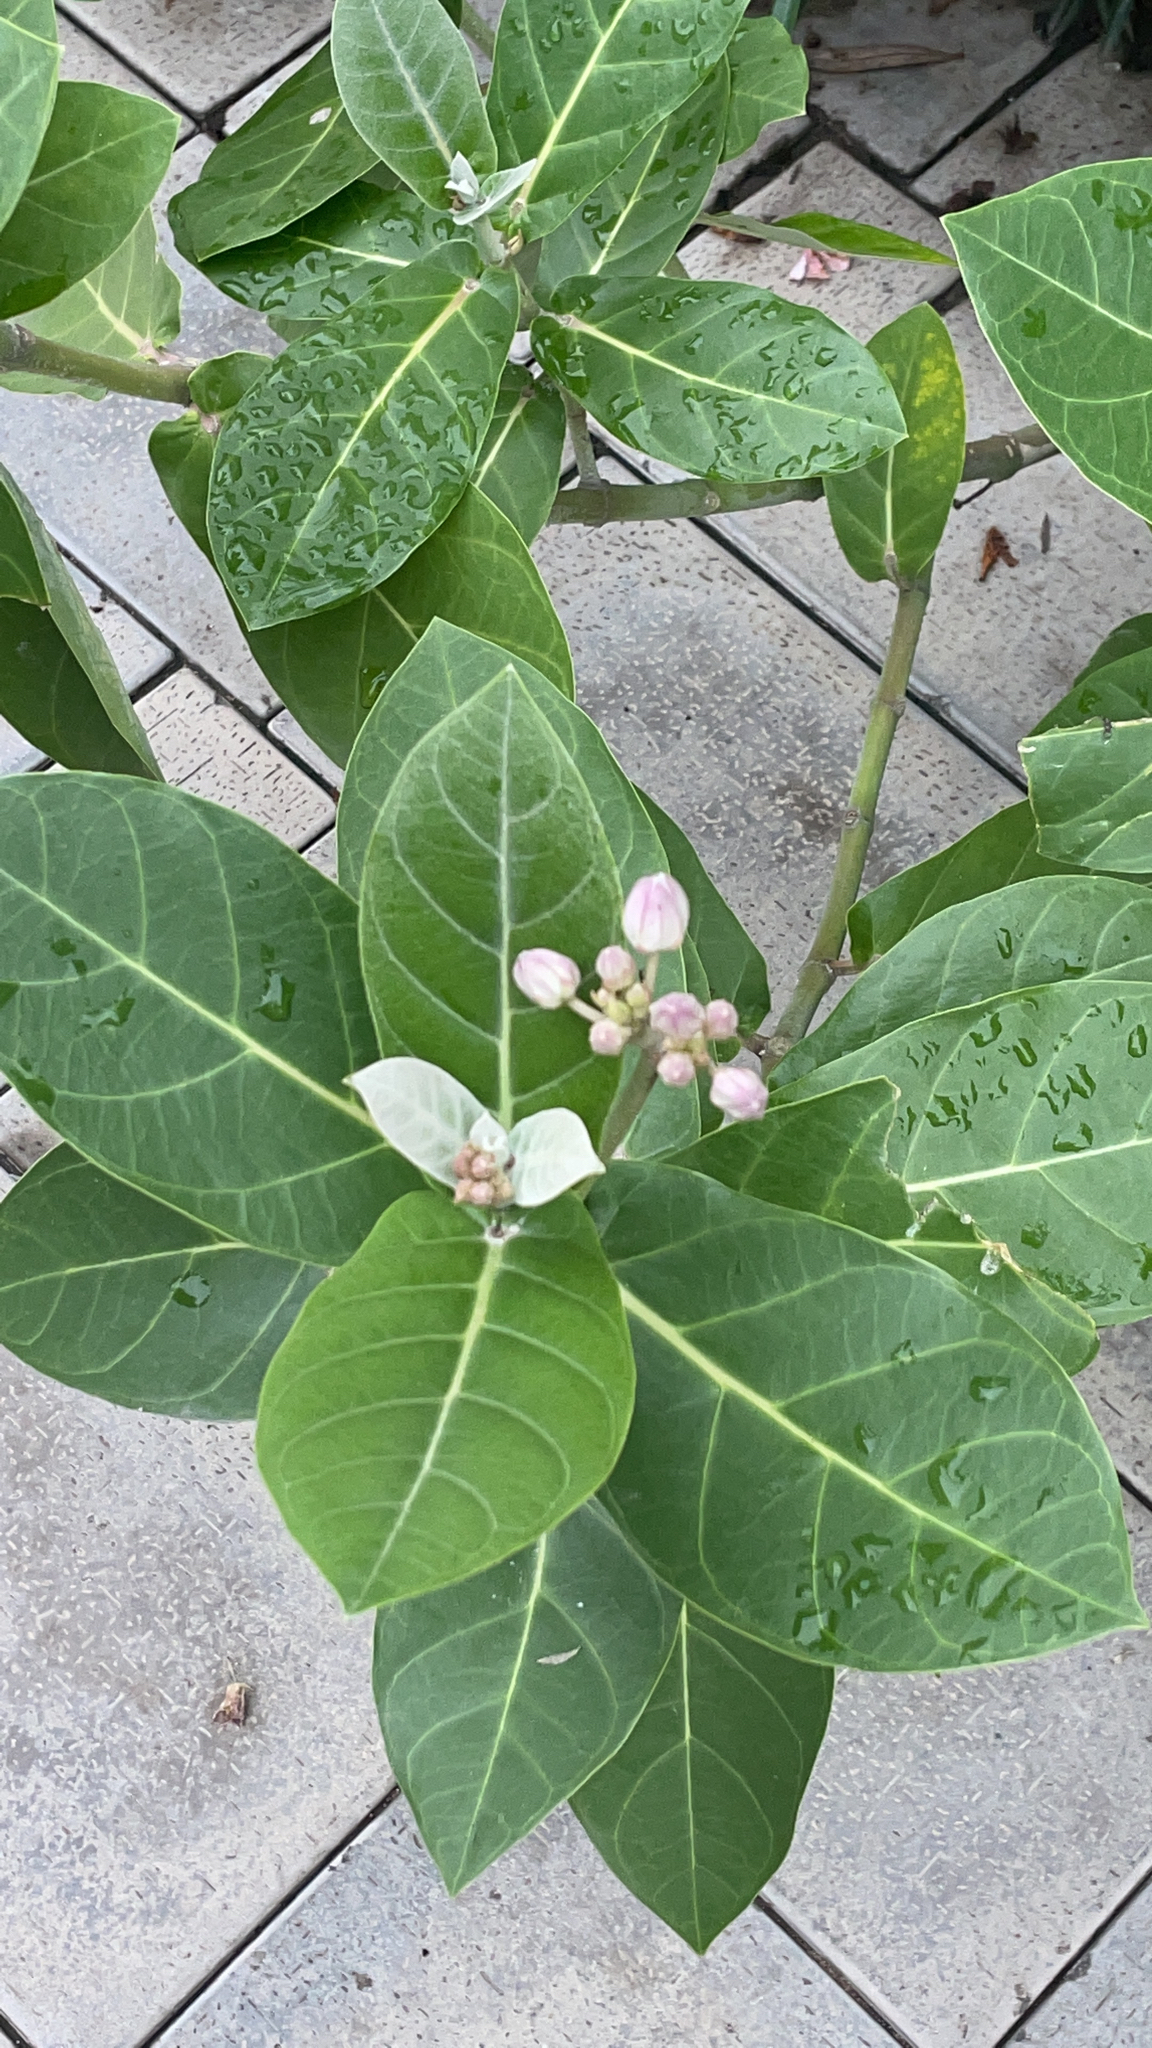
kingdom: Plantae
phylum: Tracheophyta
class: Magnoliopsida
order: Gentianales
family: Apocynaceae
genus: Calotropis
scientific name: Calotropis gigantea
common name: Crown flower
